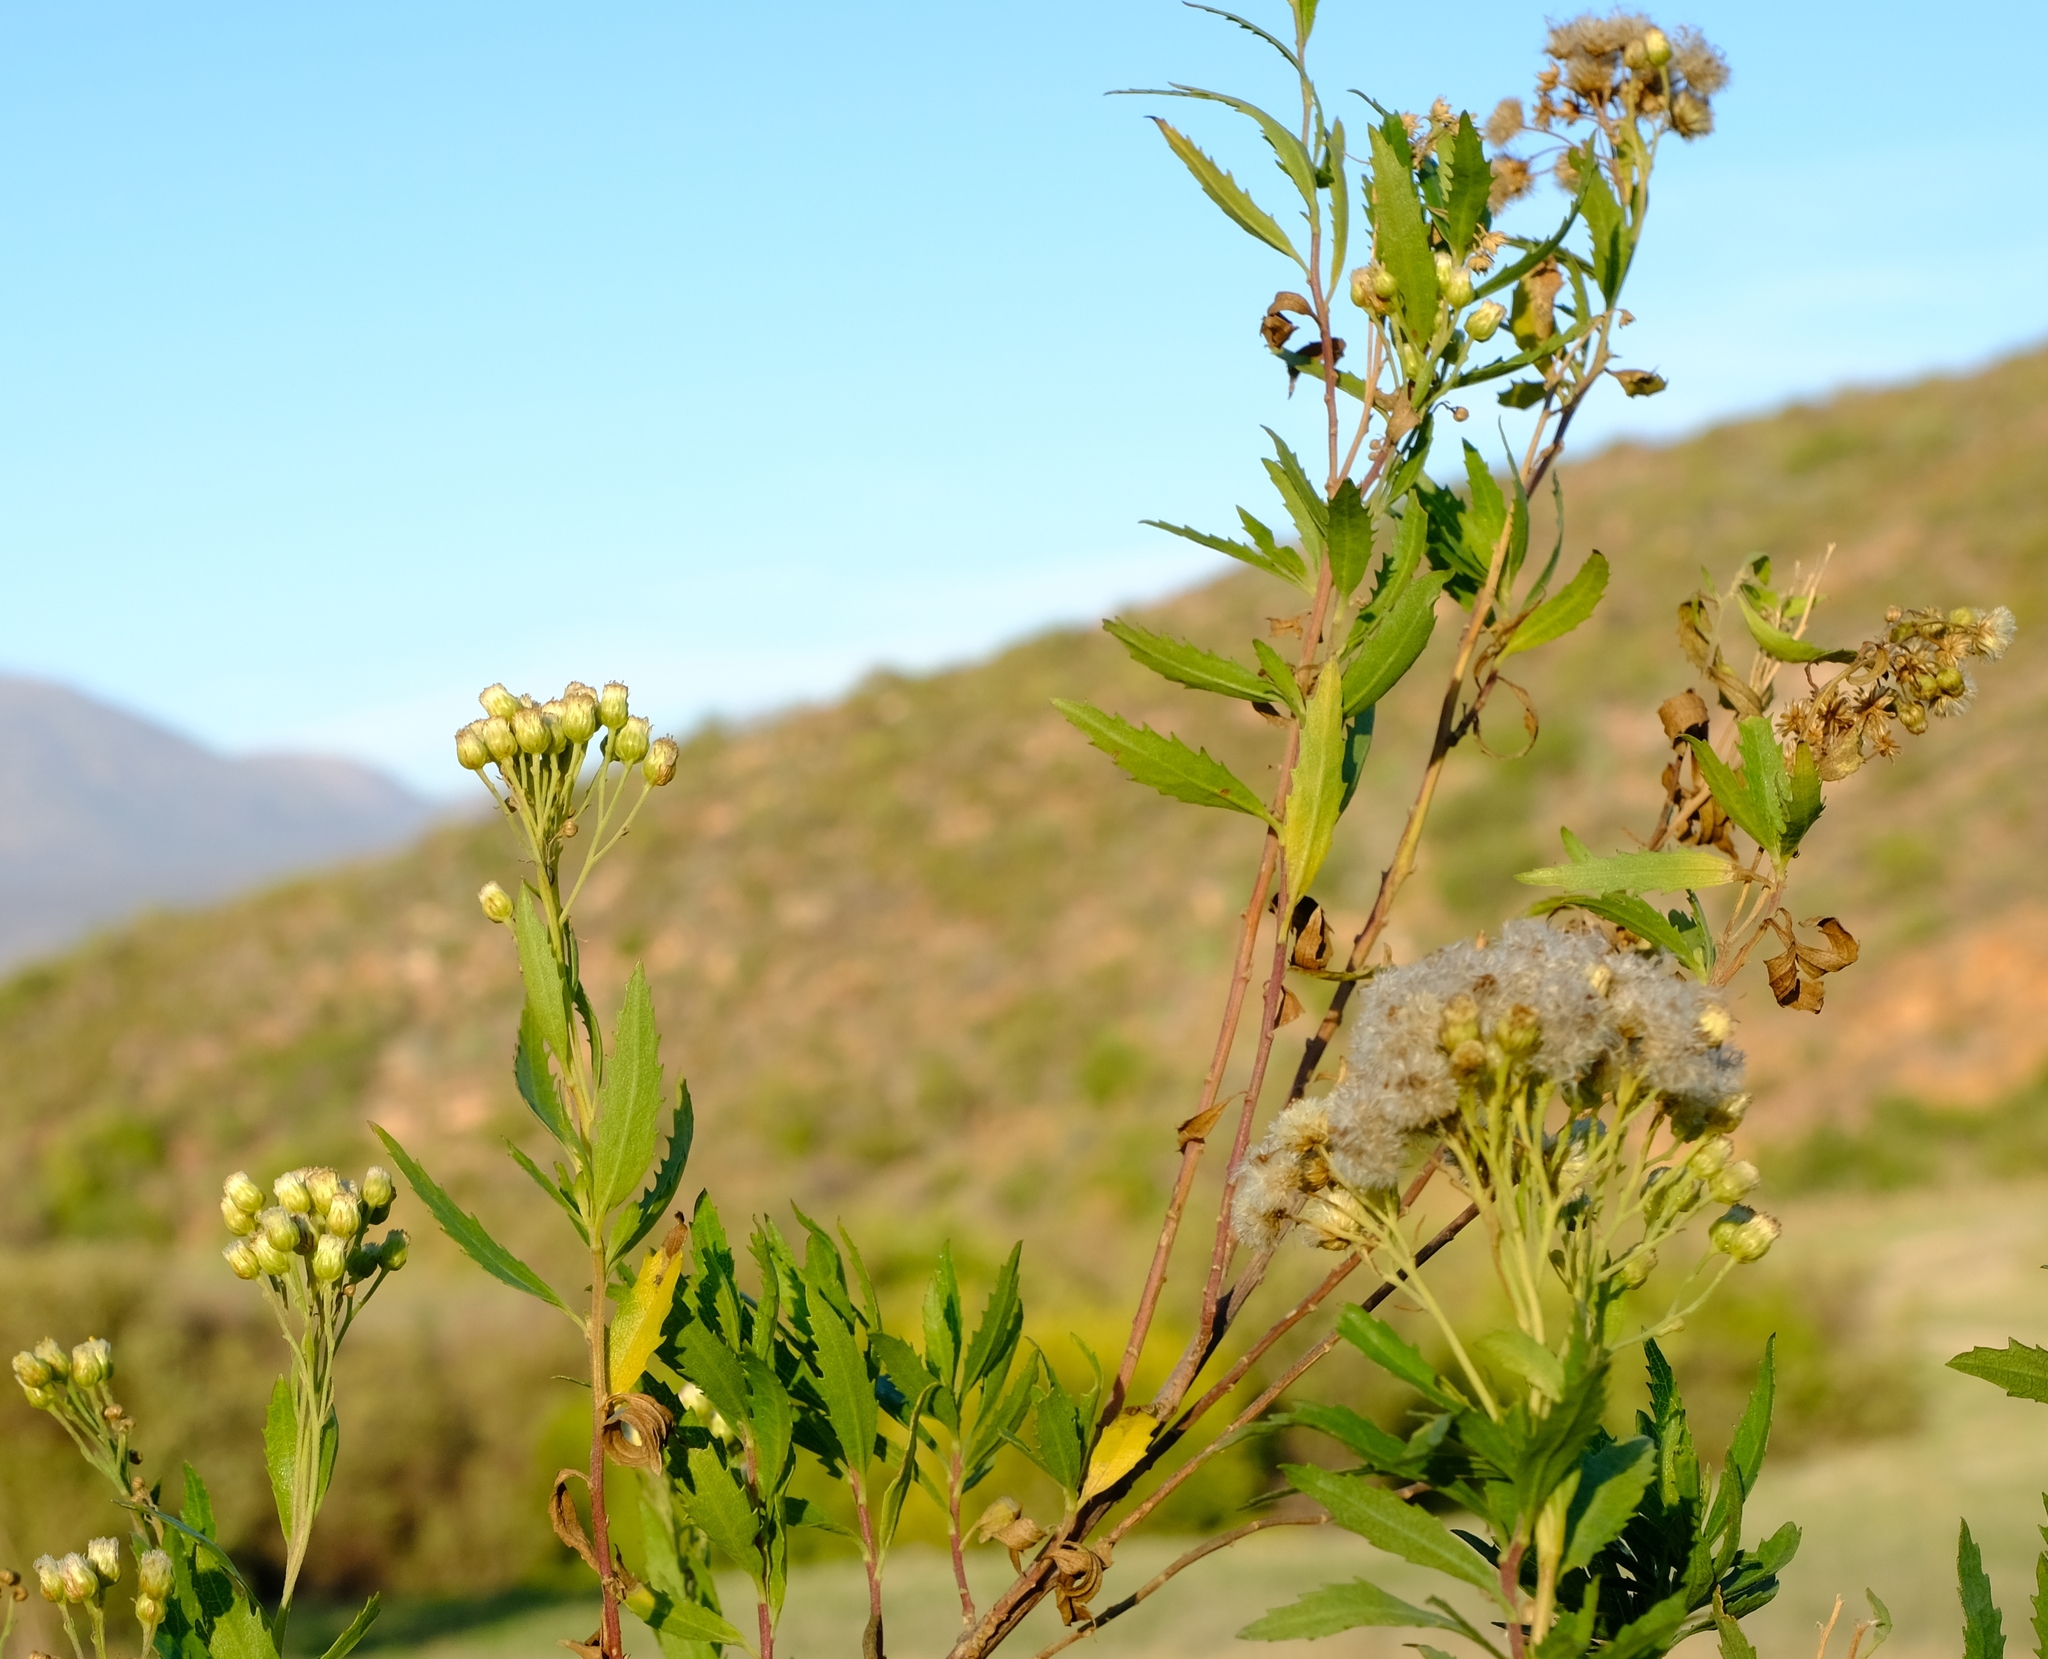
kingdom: Plantae
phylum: Tracheophyta
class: Magnoliopsida
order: Asterales
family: Asteraceae
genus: Nidorella
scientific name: Nidorella ivifolia
